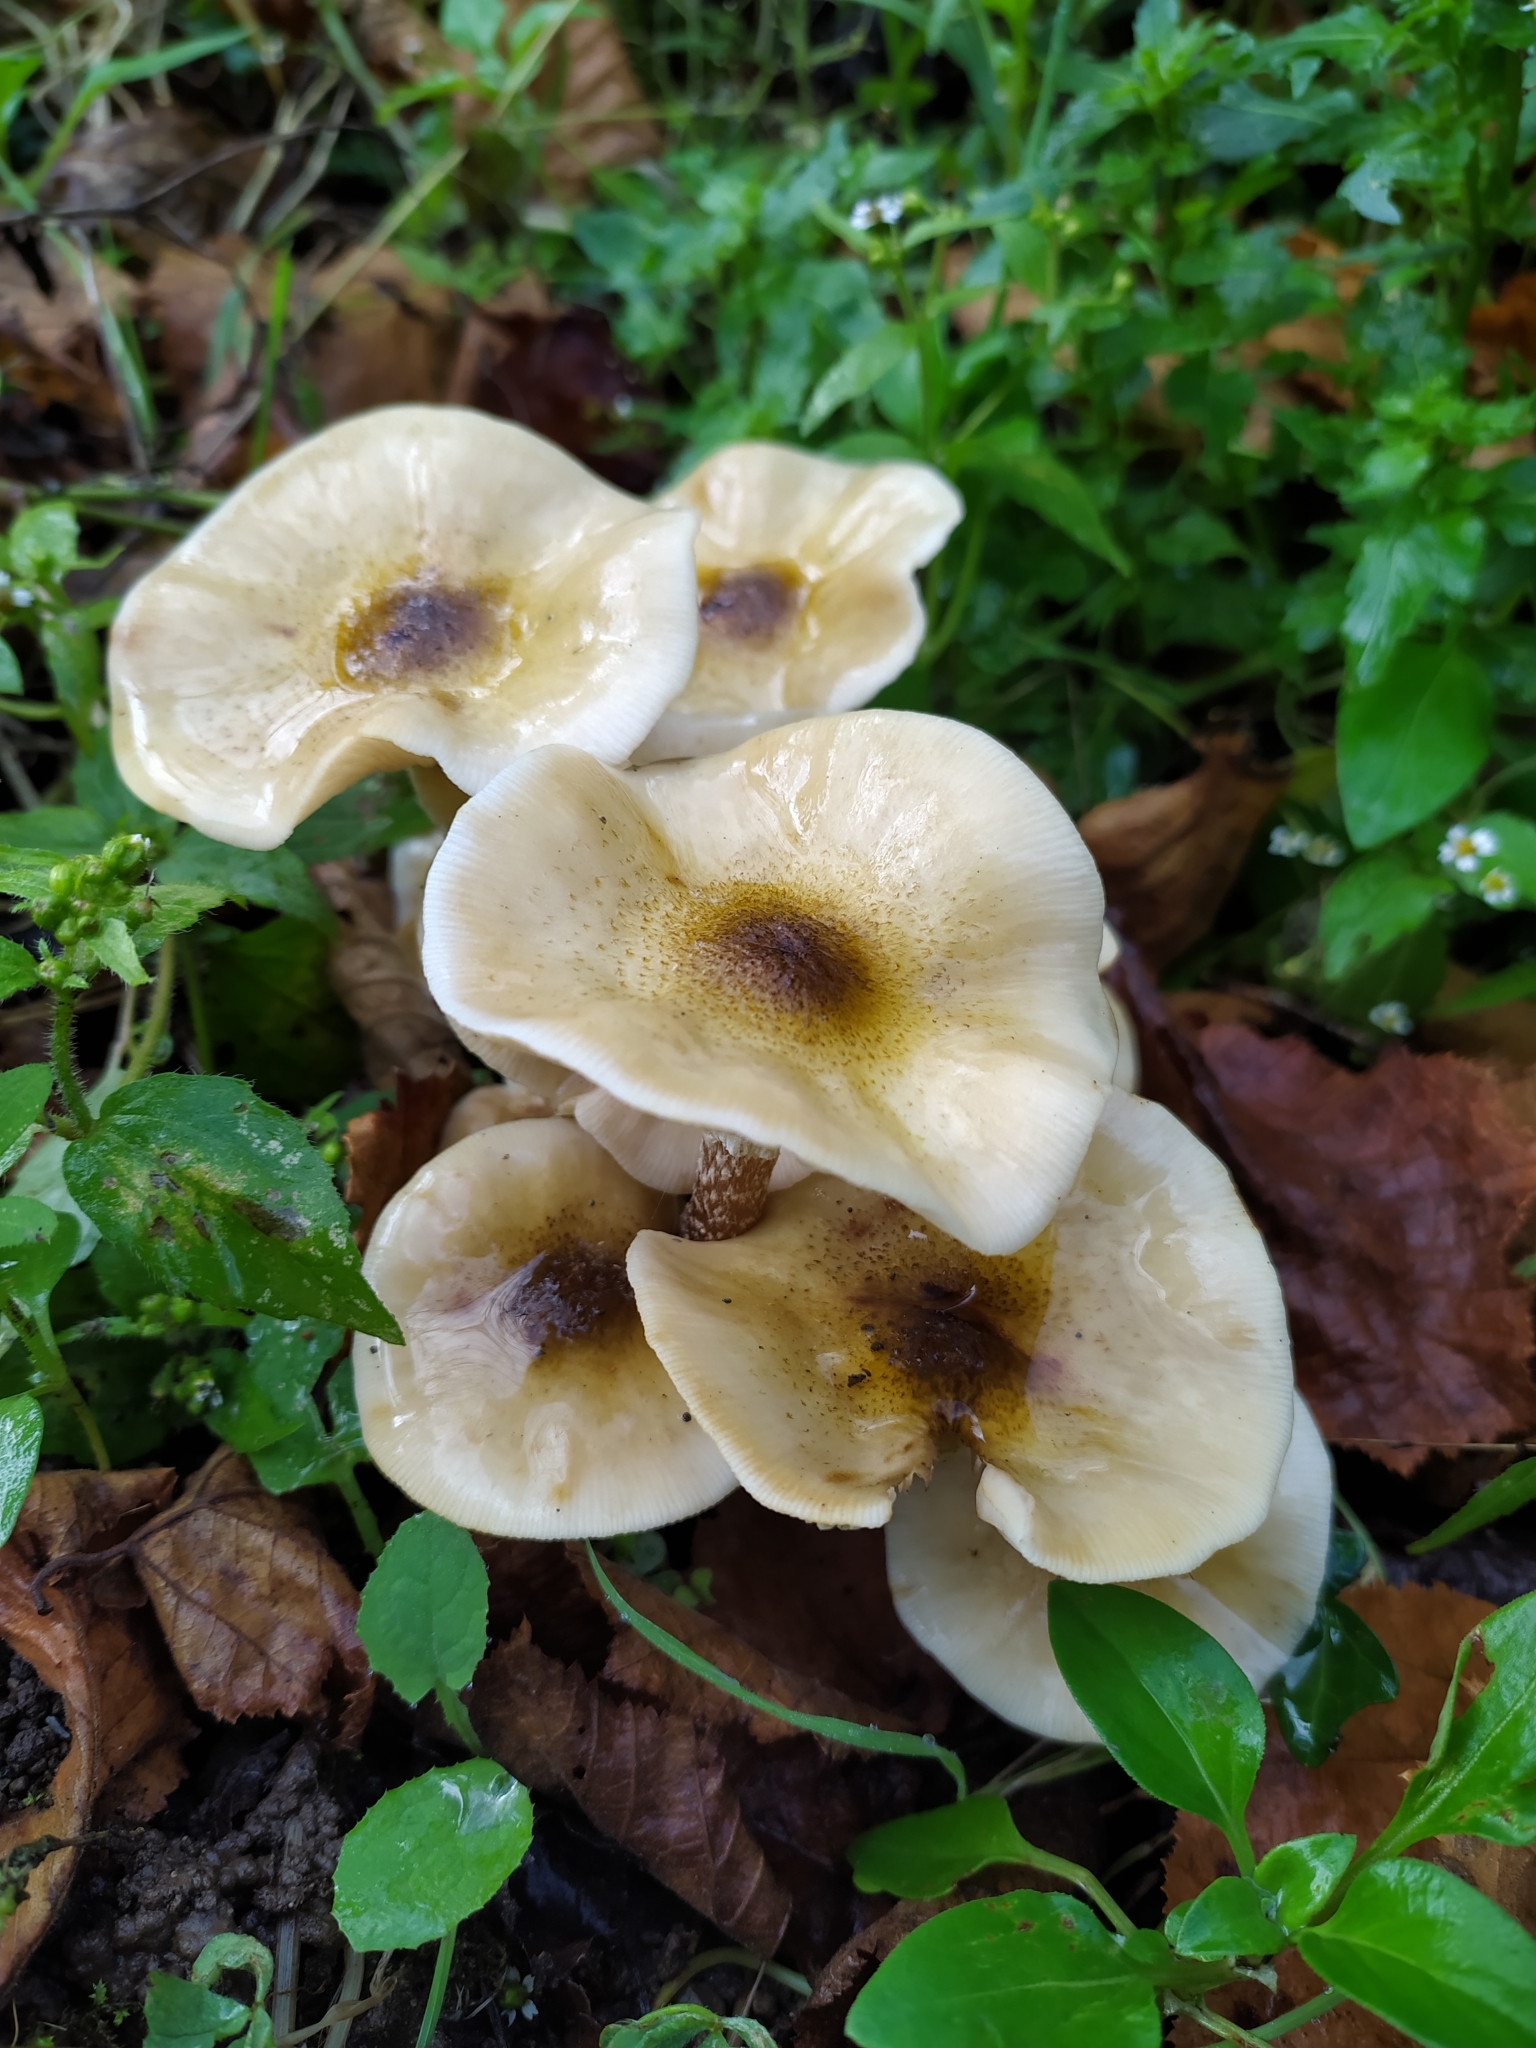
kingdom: Fungi
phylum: Basidiomycota
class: Agaricomycetes
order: Agaricales
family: Physalacriaceae
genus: Armillaria
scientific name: Armillaria mellea
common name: Honey fungus
